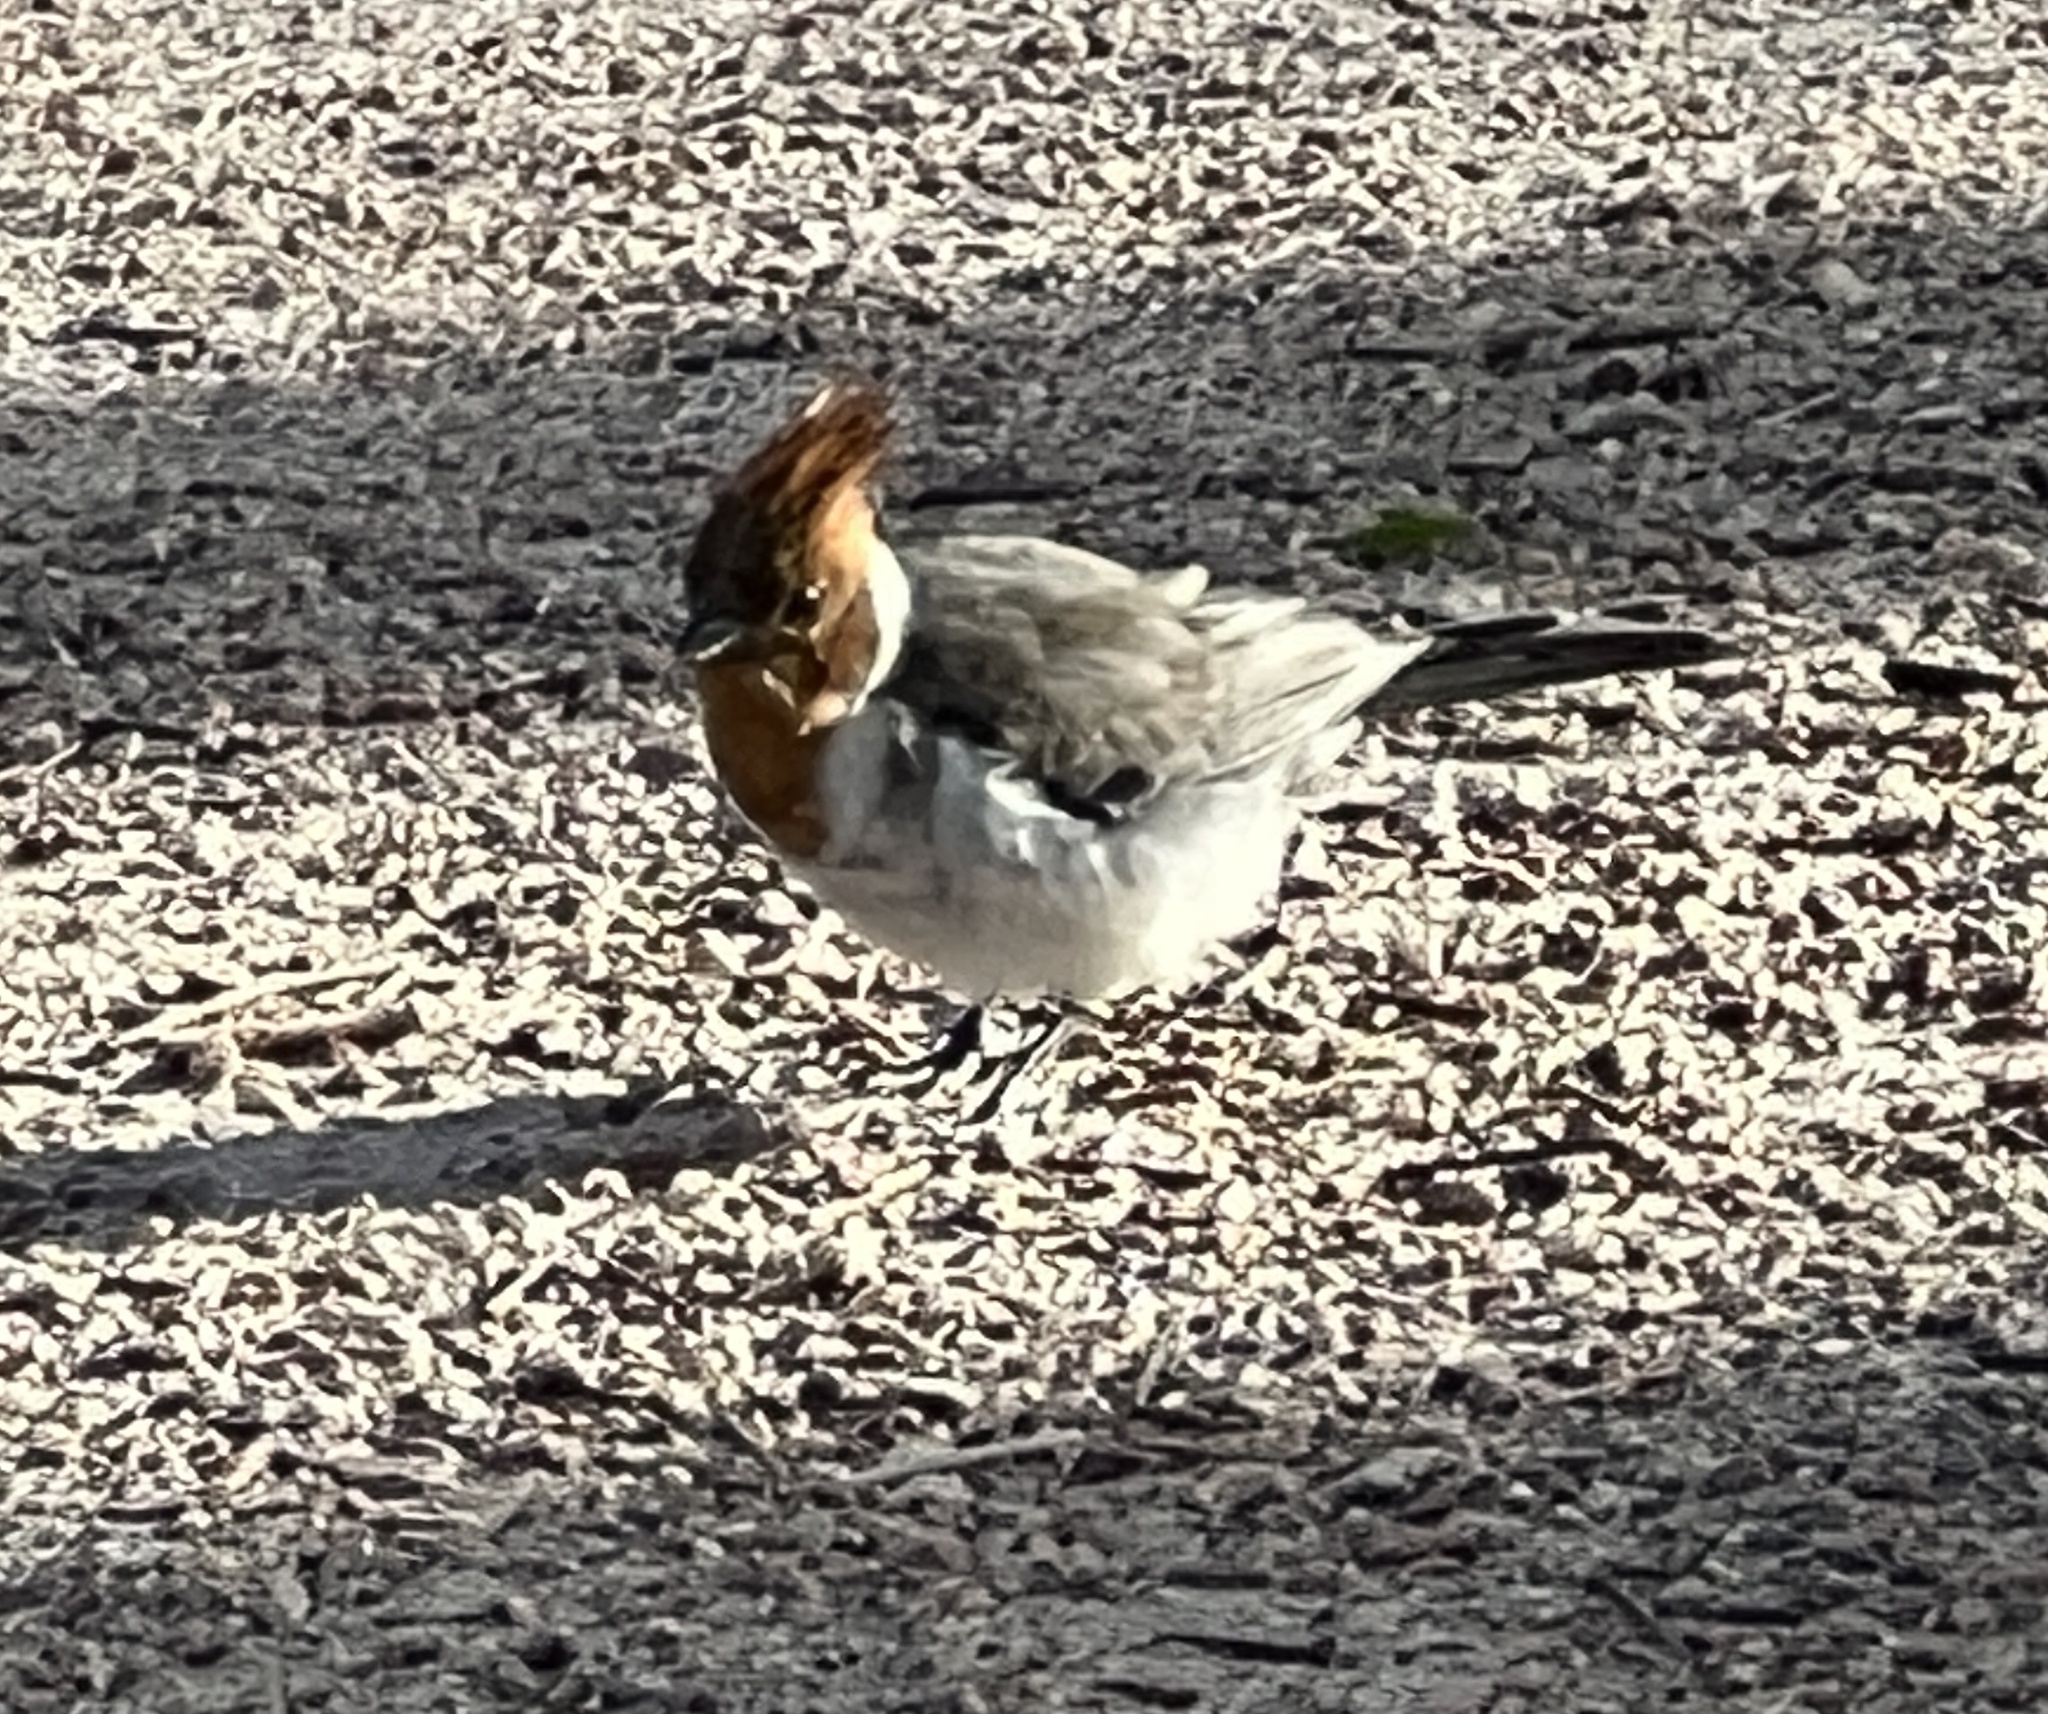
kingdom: Animalia
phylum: Chordata
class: Aves
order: Passeriformes
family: Thraupidae
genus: Paroaria
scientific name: Paroaria coronata
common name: Red-crested cardinal
